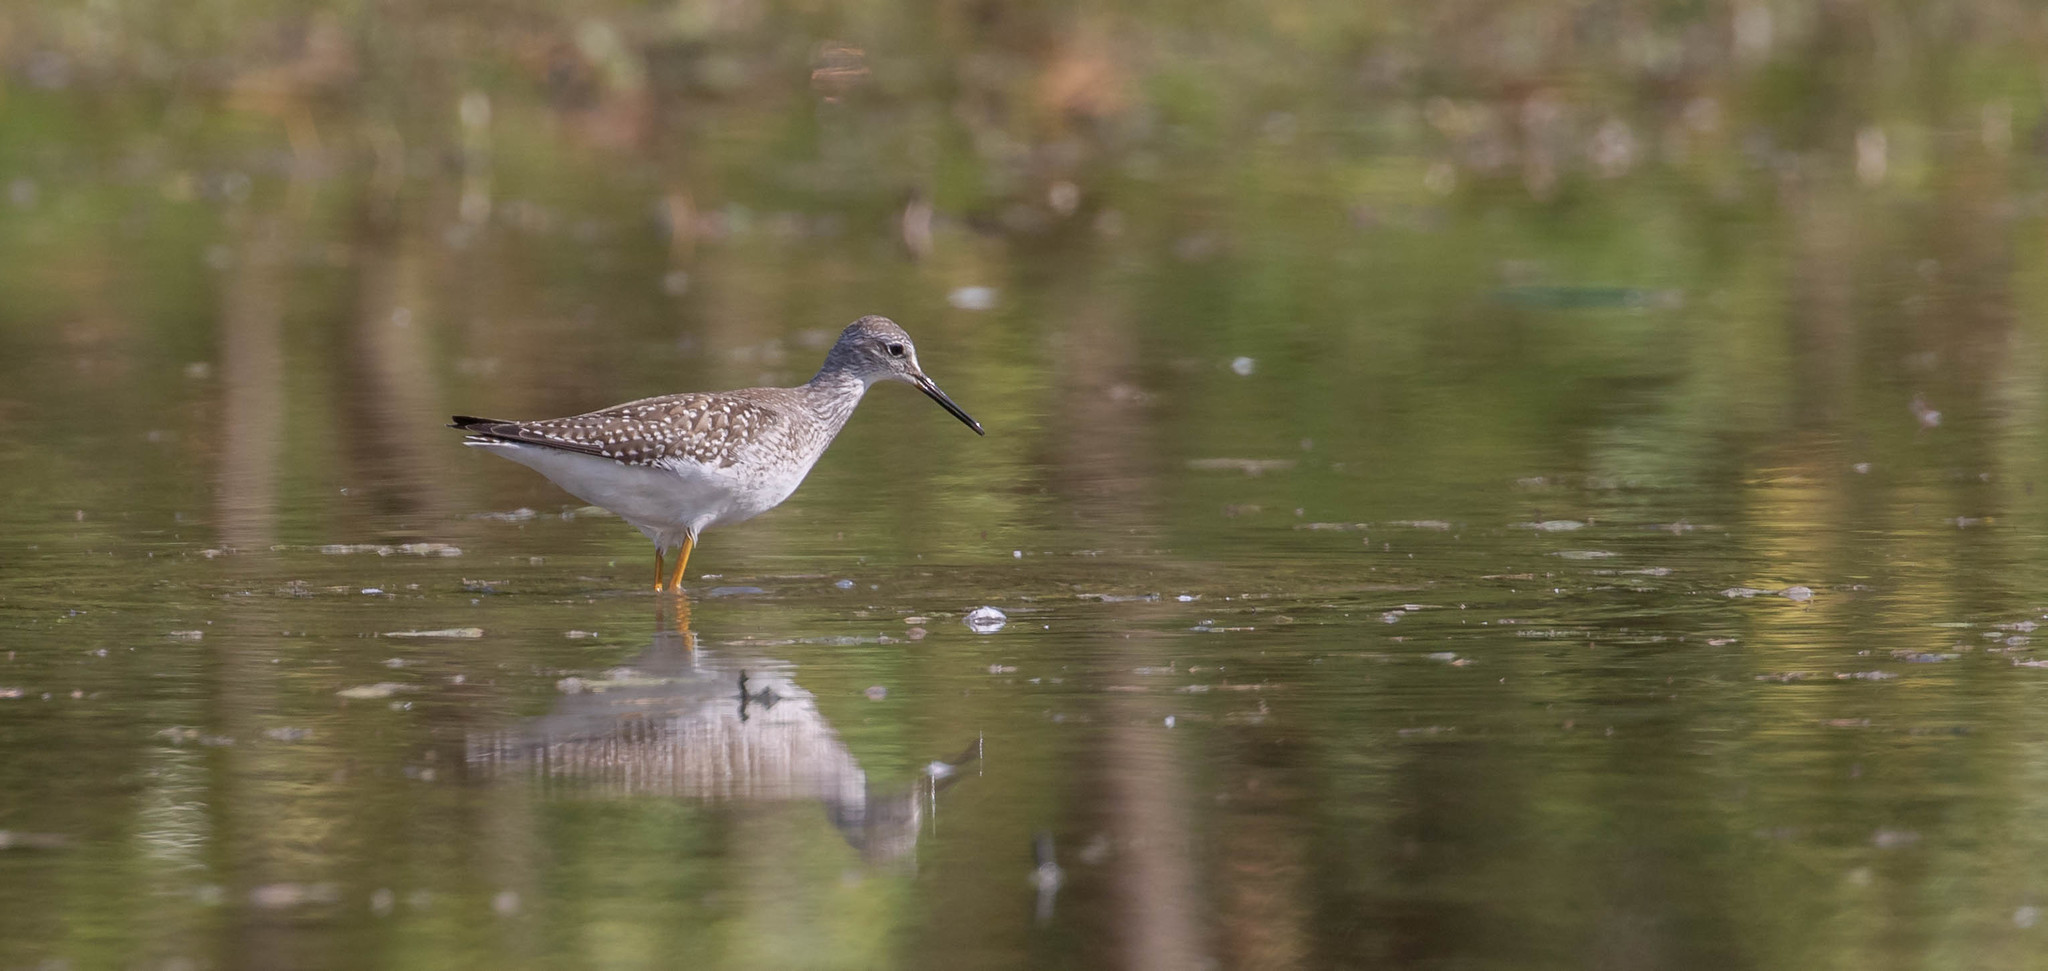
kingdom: Animalia
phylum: Chordata
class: Aves
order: Charadriiformes
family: Scolopacidae
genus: Tringa
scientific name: Tringa melanoleuca
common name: Greater yellowlegs
